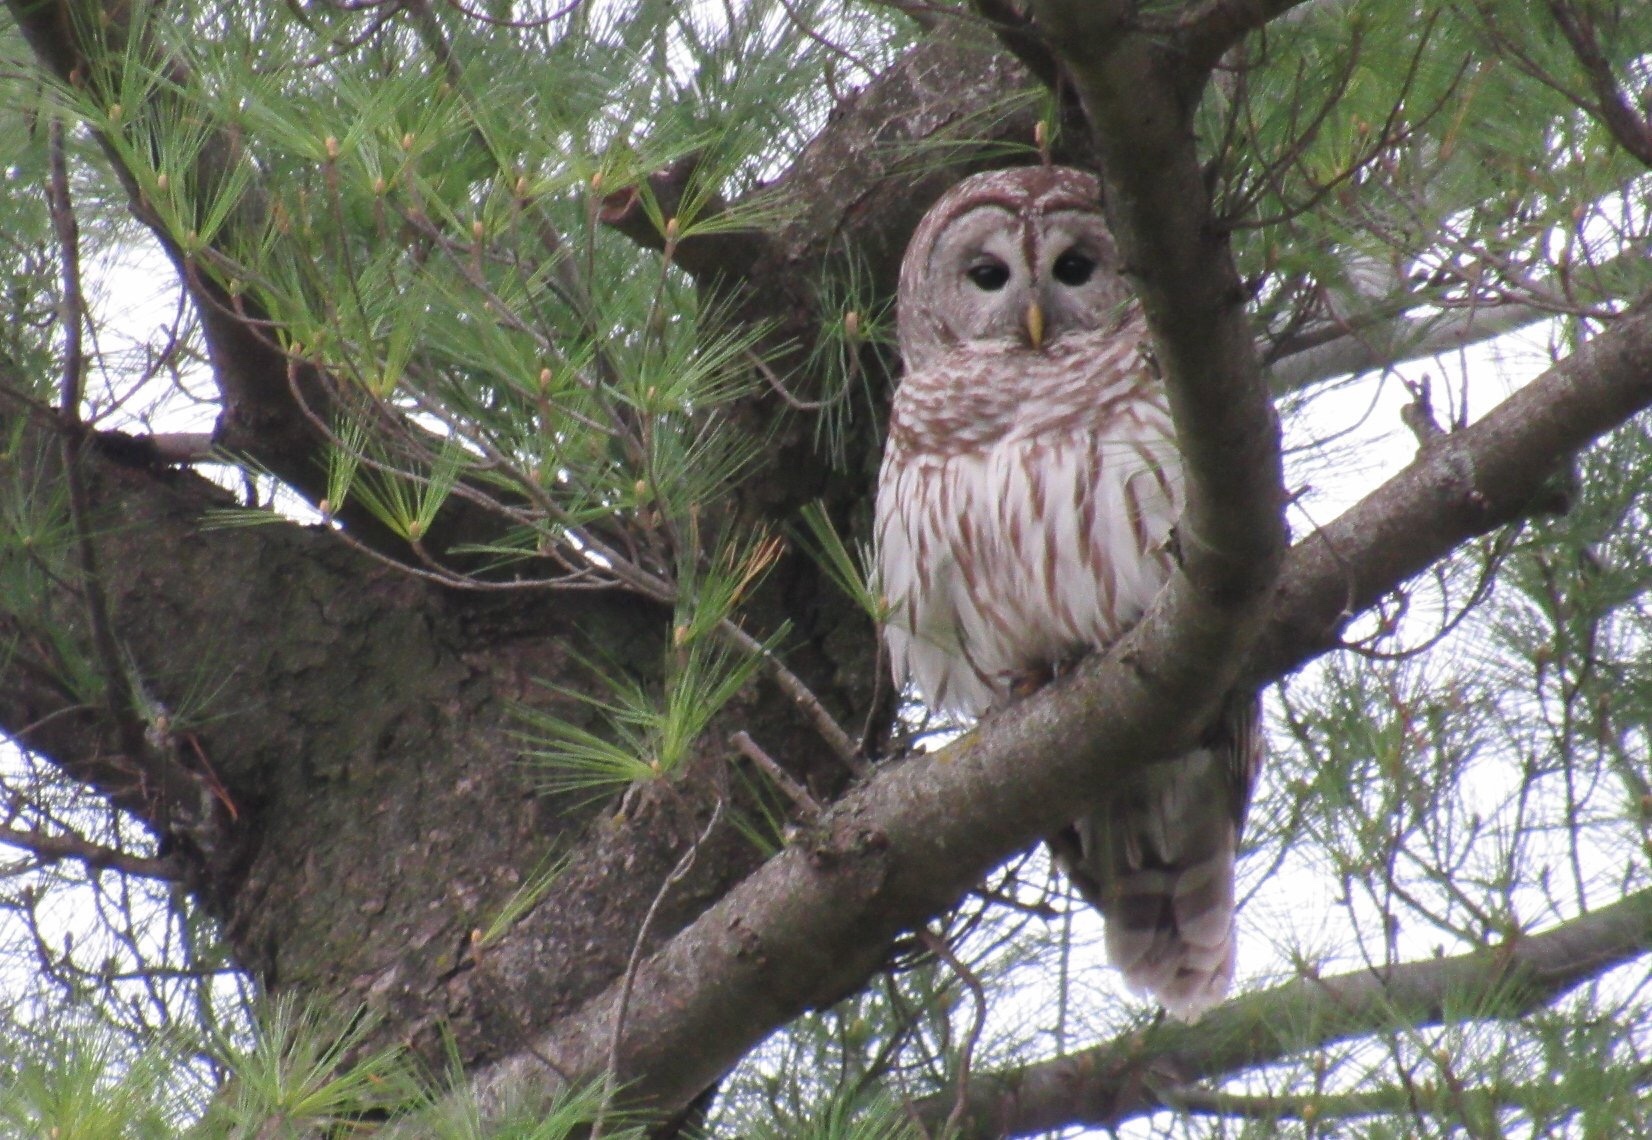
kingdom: Animalia
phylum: Chordata
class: Aves
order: Strigiformes
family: Strigidae
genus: Strix
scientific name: Strix varia
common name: Barred owl
